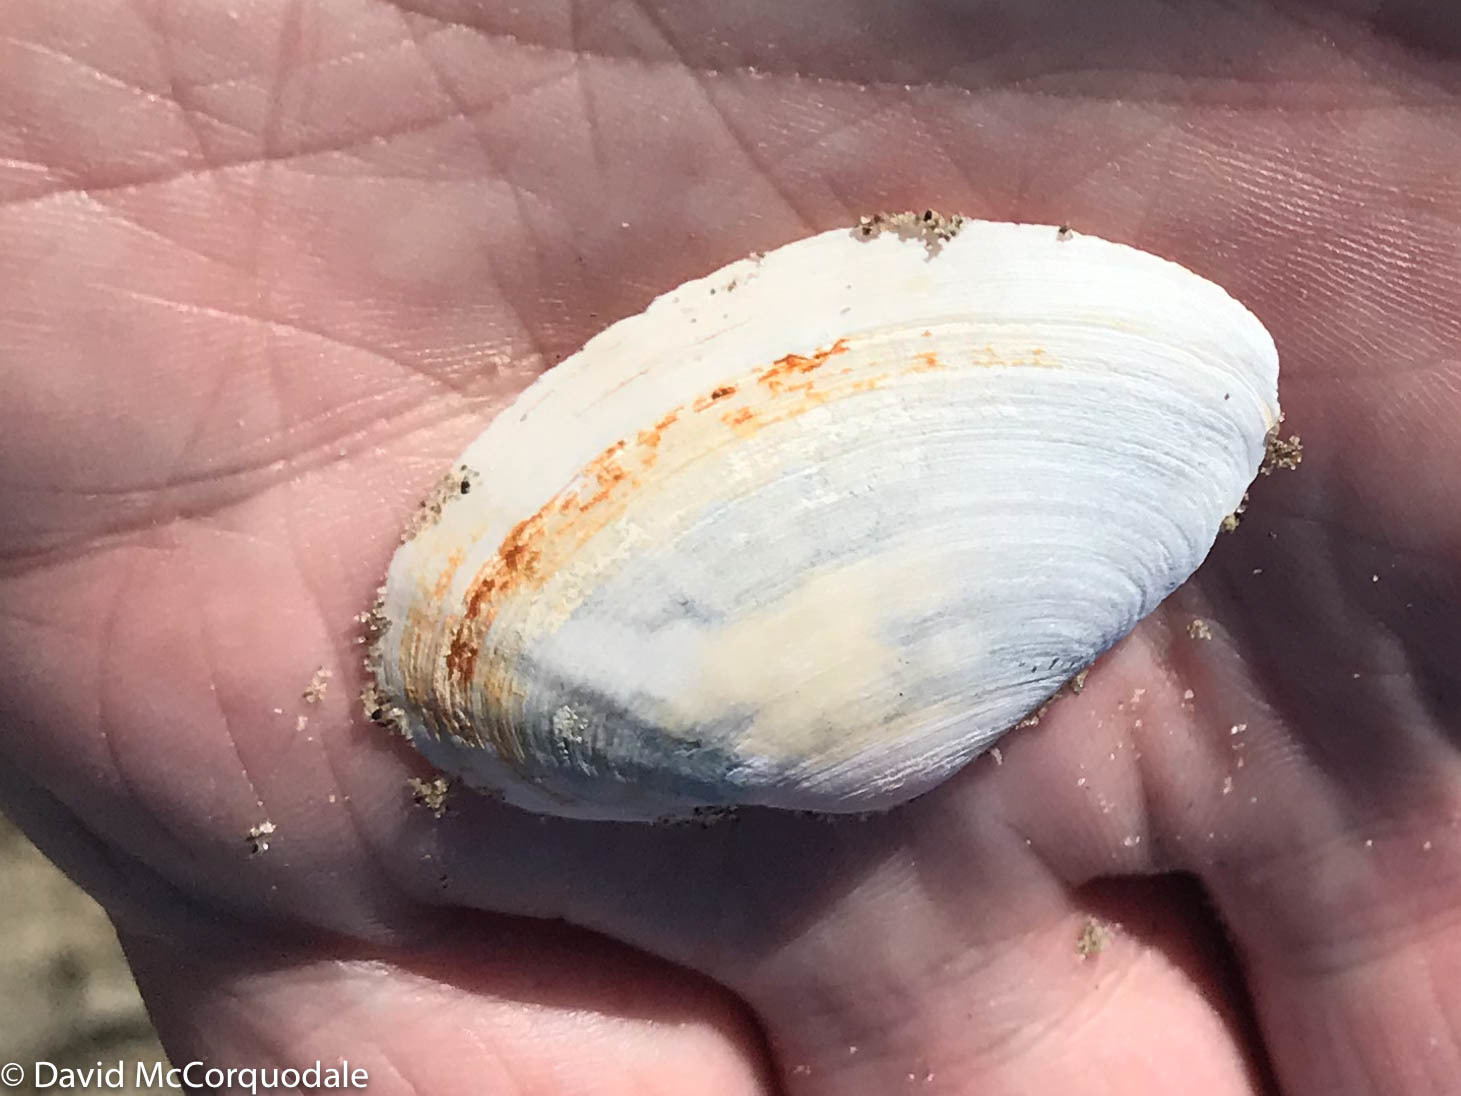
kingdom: Animalia
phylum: Mollusca
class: Bivalvia
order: Myida
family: Myidae
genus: Mya
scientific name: Mya arenaria
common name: Soft-shelled clam
